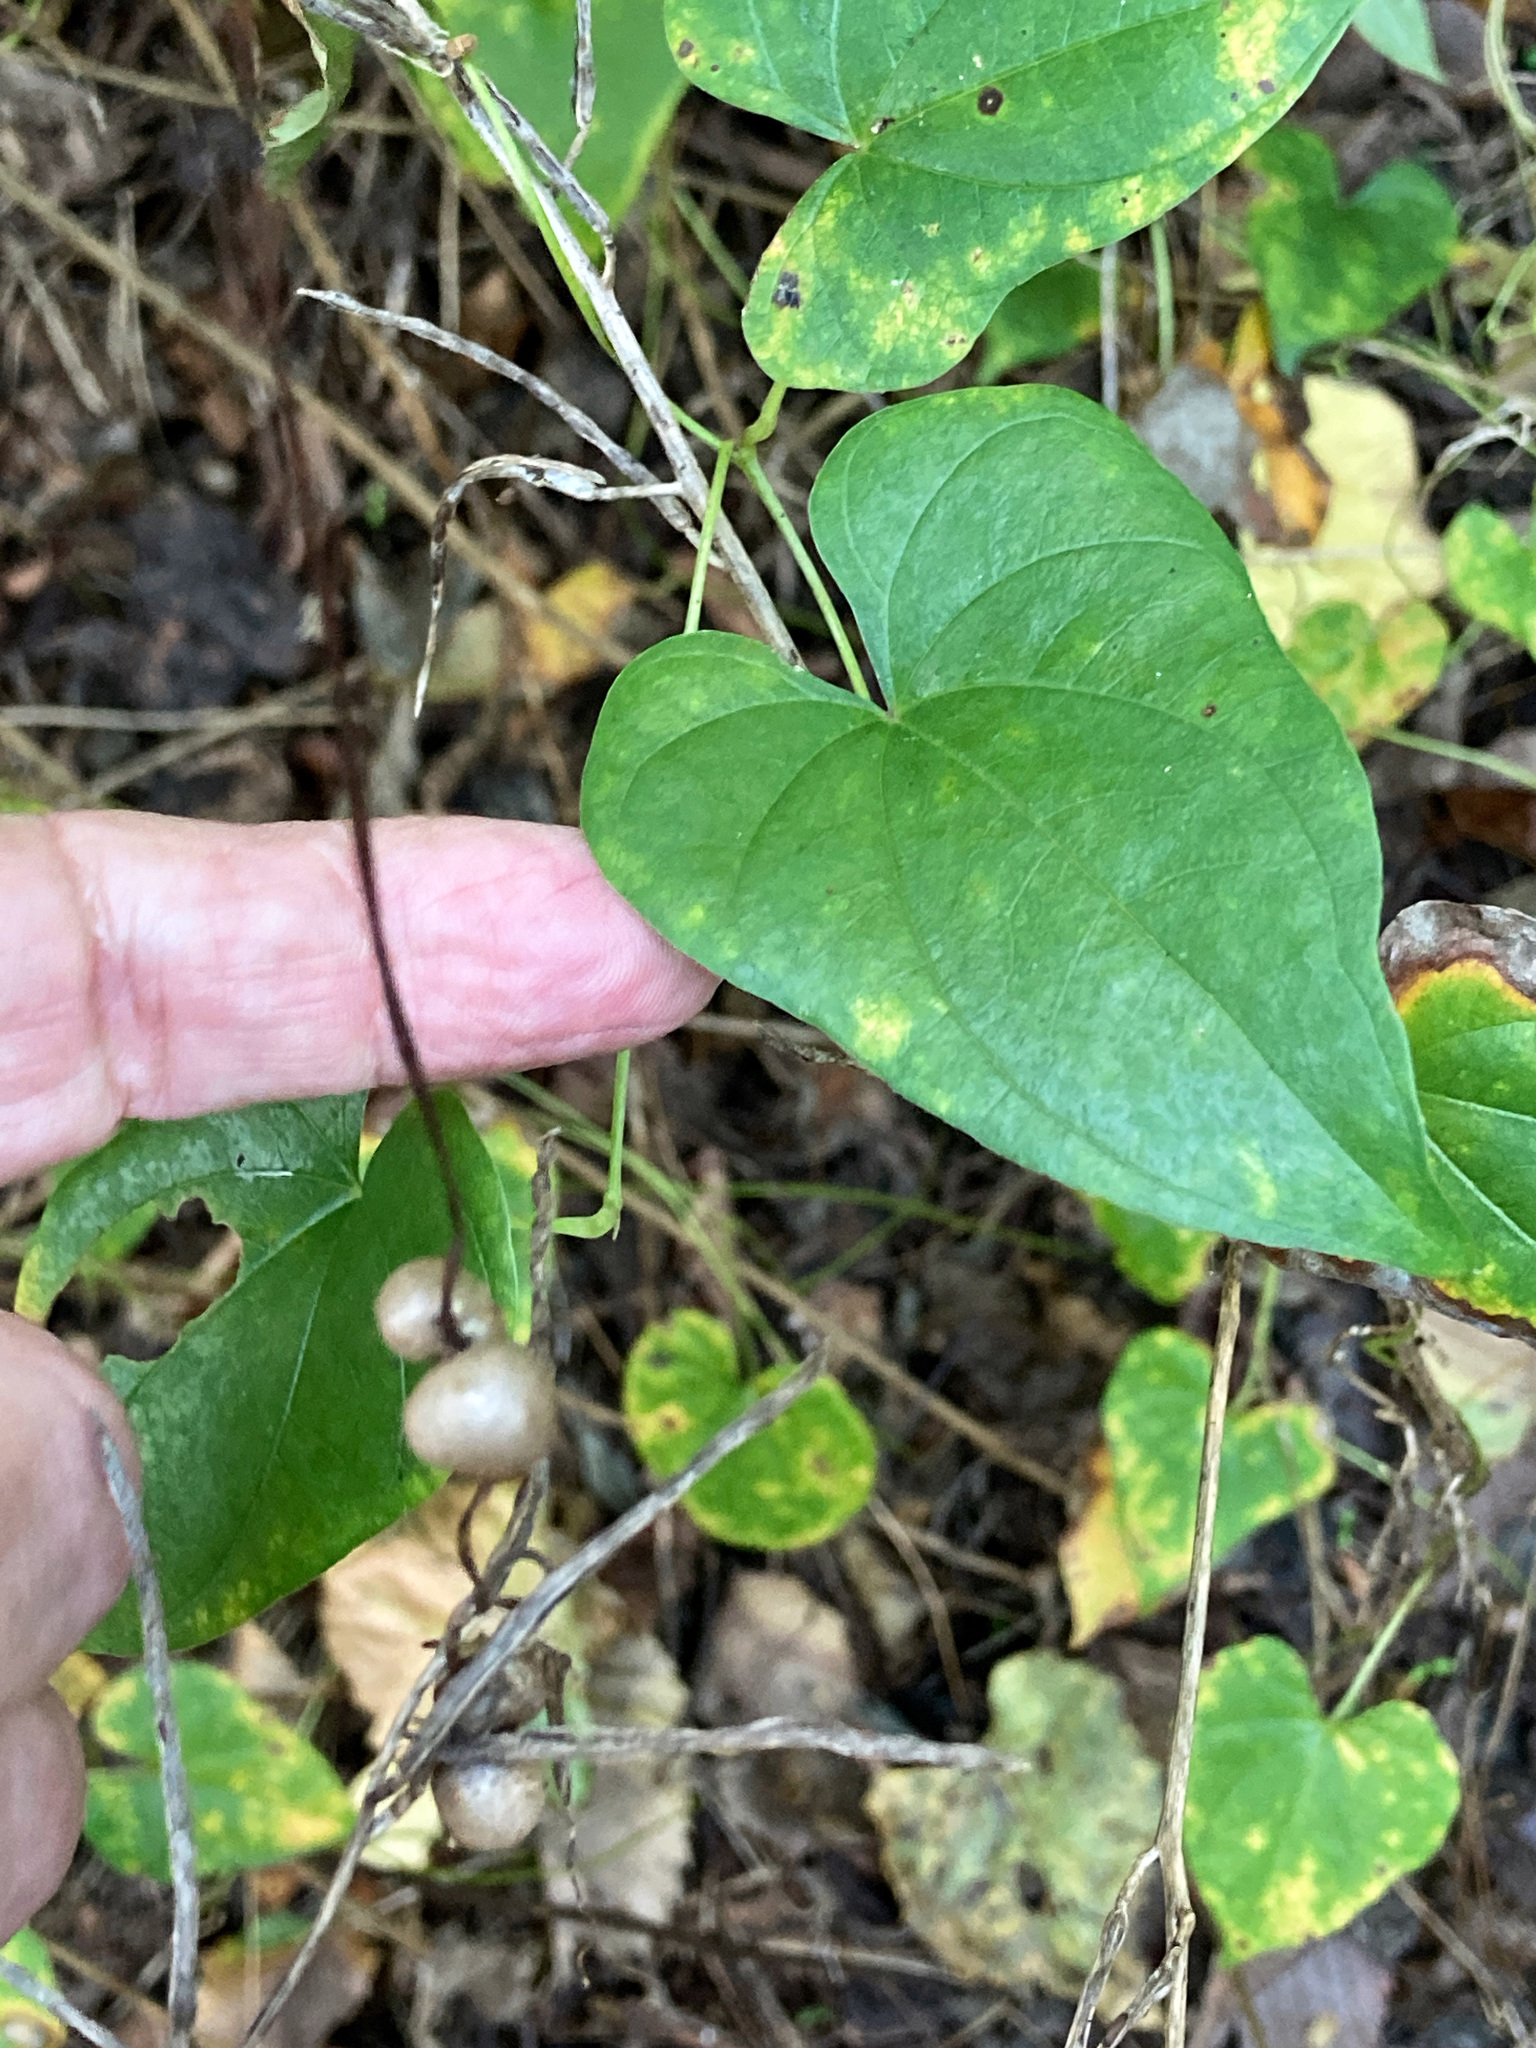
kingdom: Plantae
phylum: Tracheophyta
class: Liliopsida
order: Dioscoreales
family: Dioscoreaceae
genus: Dioscorea
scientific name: Dioscorea polystachya
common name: Chinese yam
